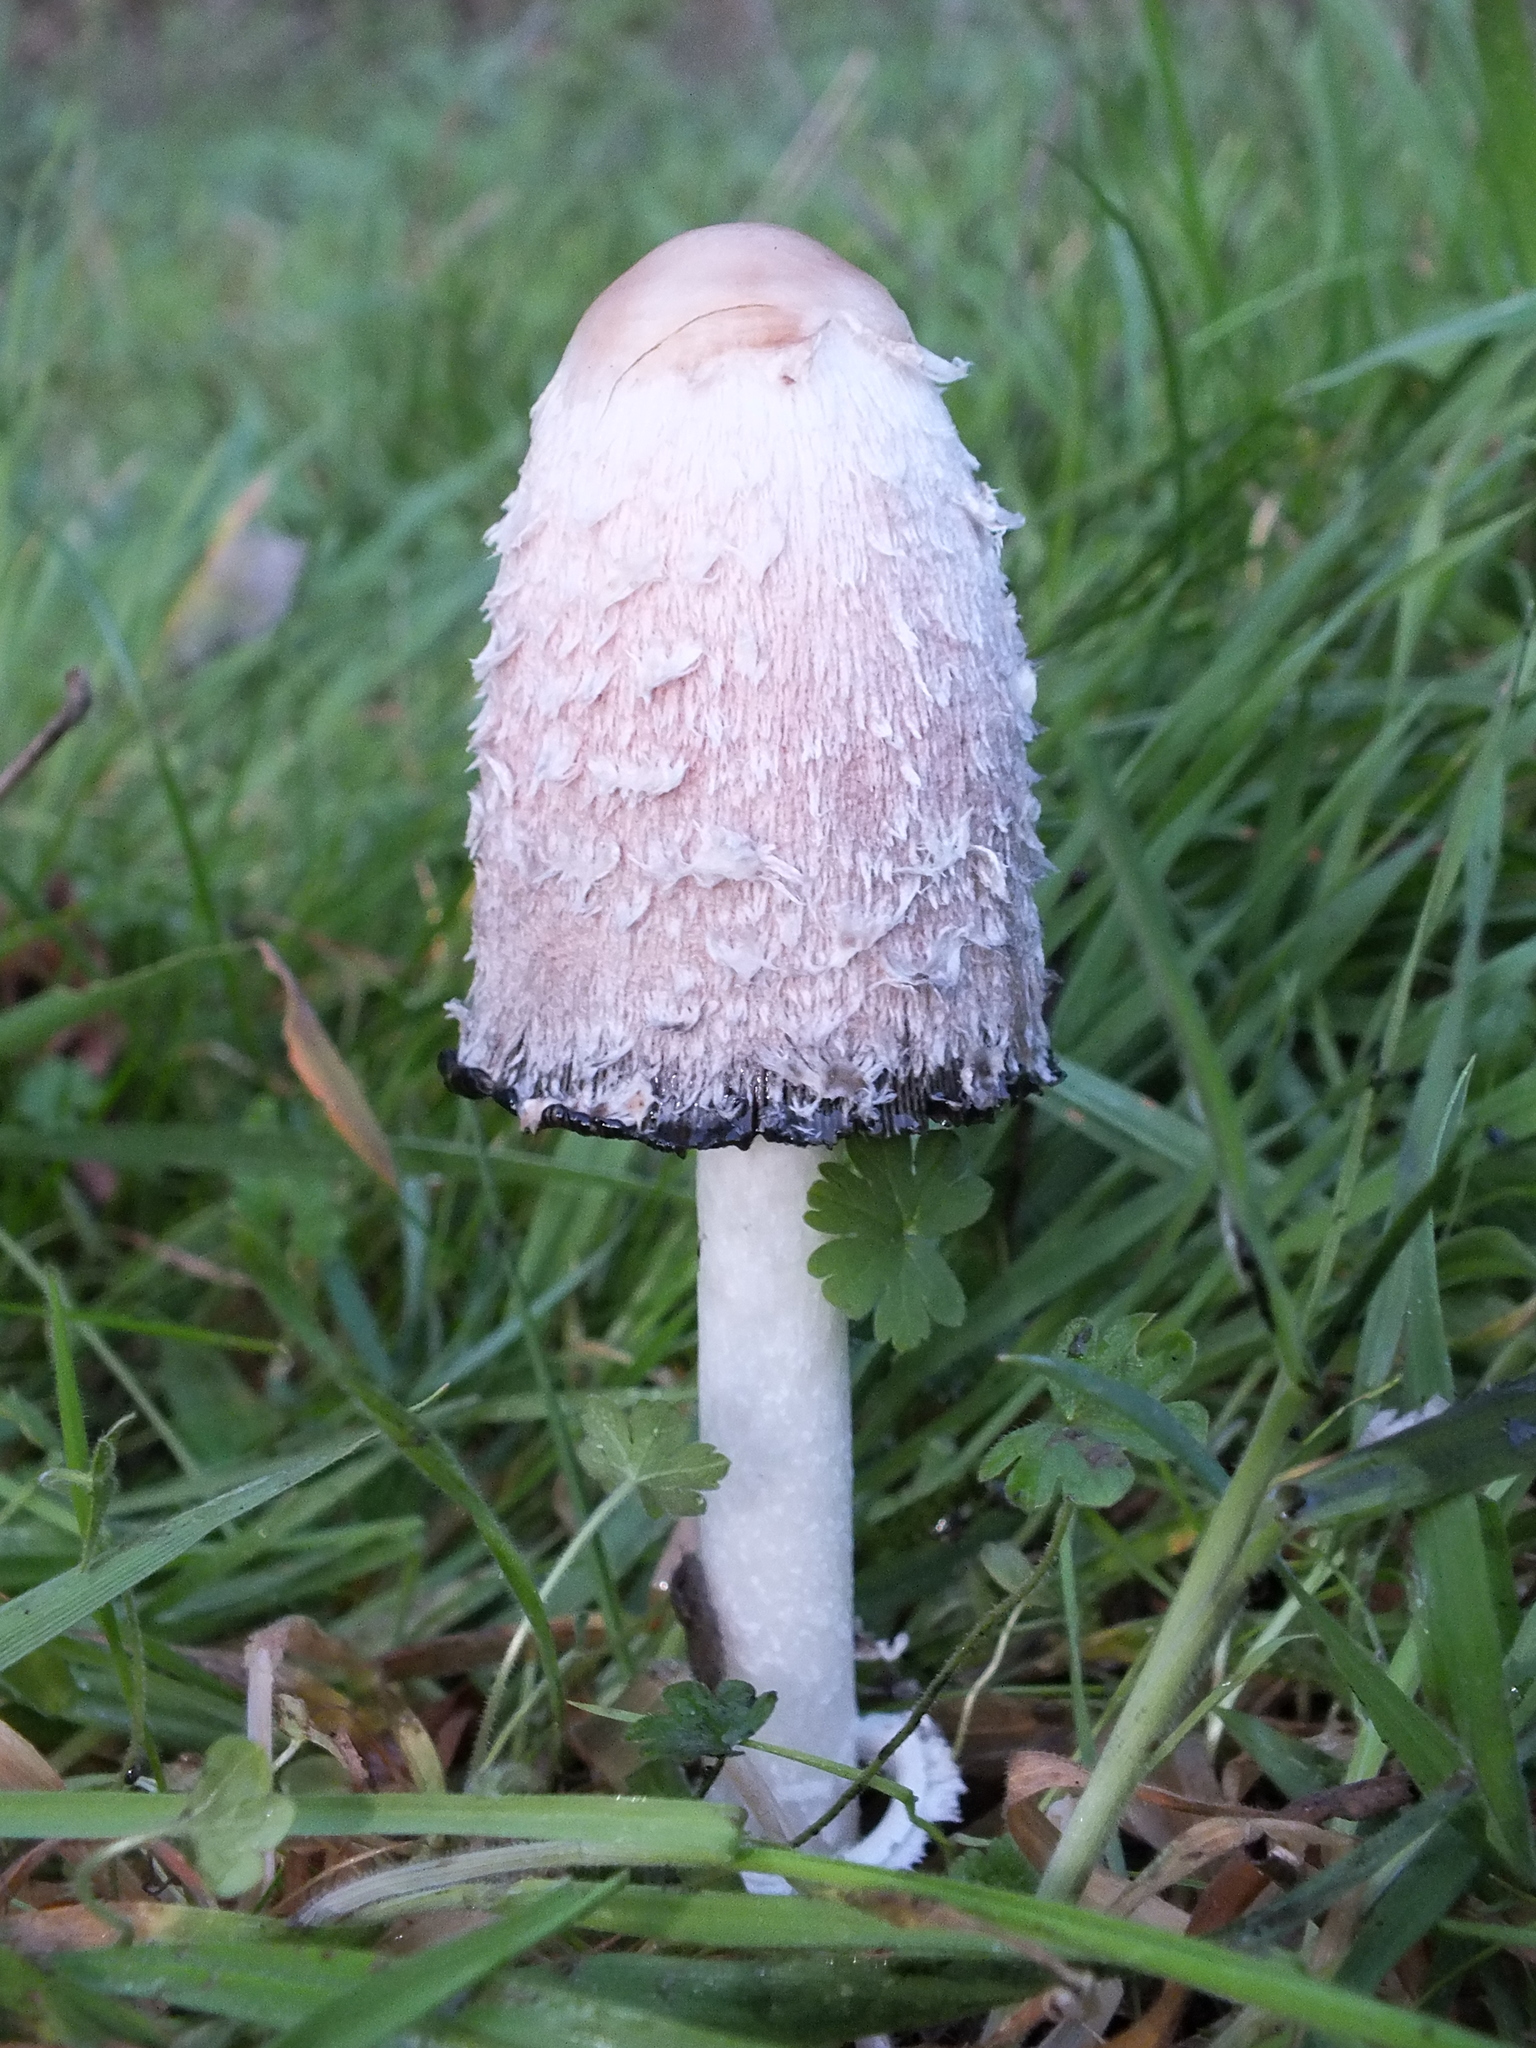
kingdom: Fungi
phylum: Basidiomycota
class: Agaricomycetes
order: Agaricales
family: Agaricaceae
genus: Coprinus
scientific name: Coprinus comatus
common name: Lawyer's wig
